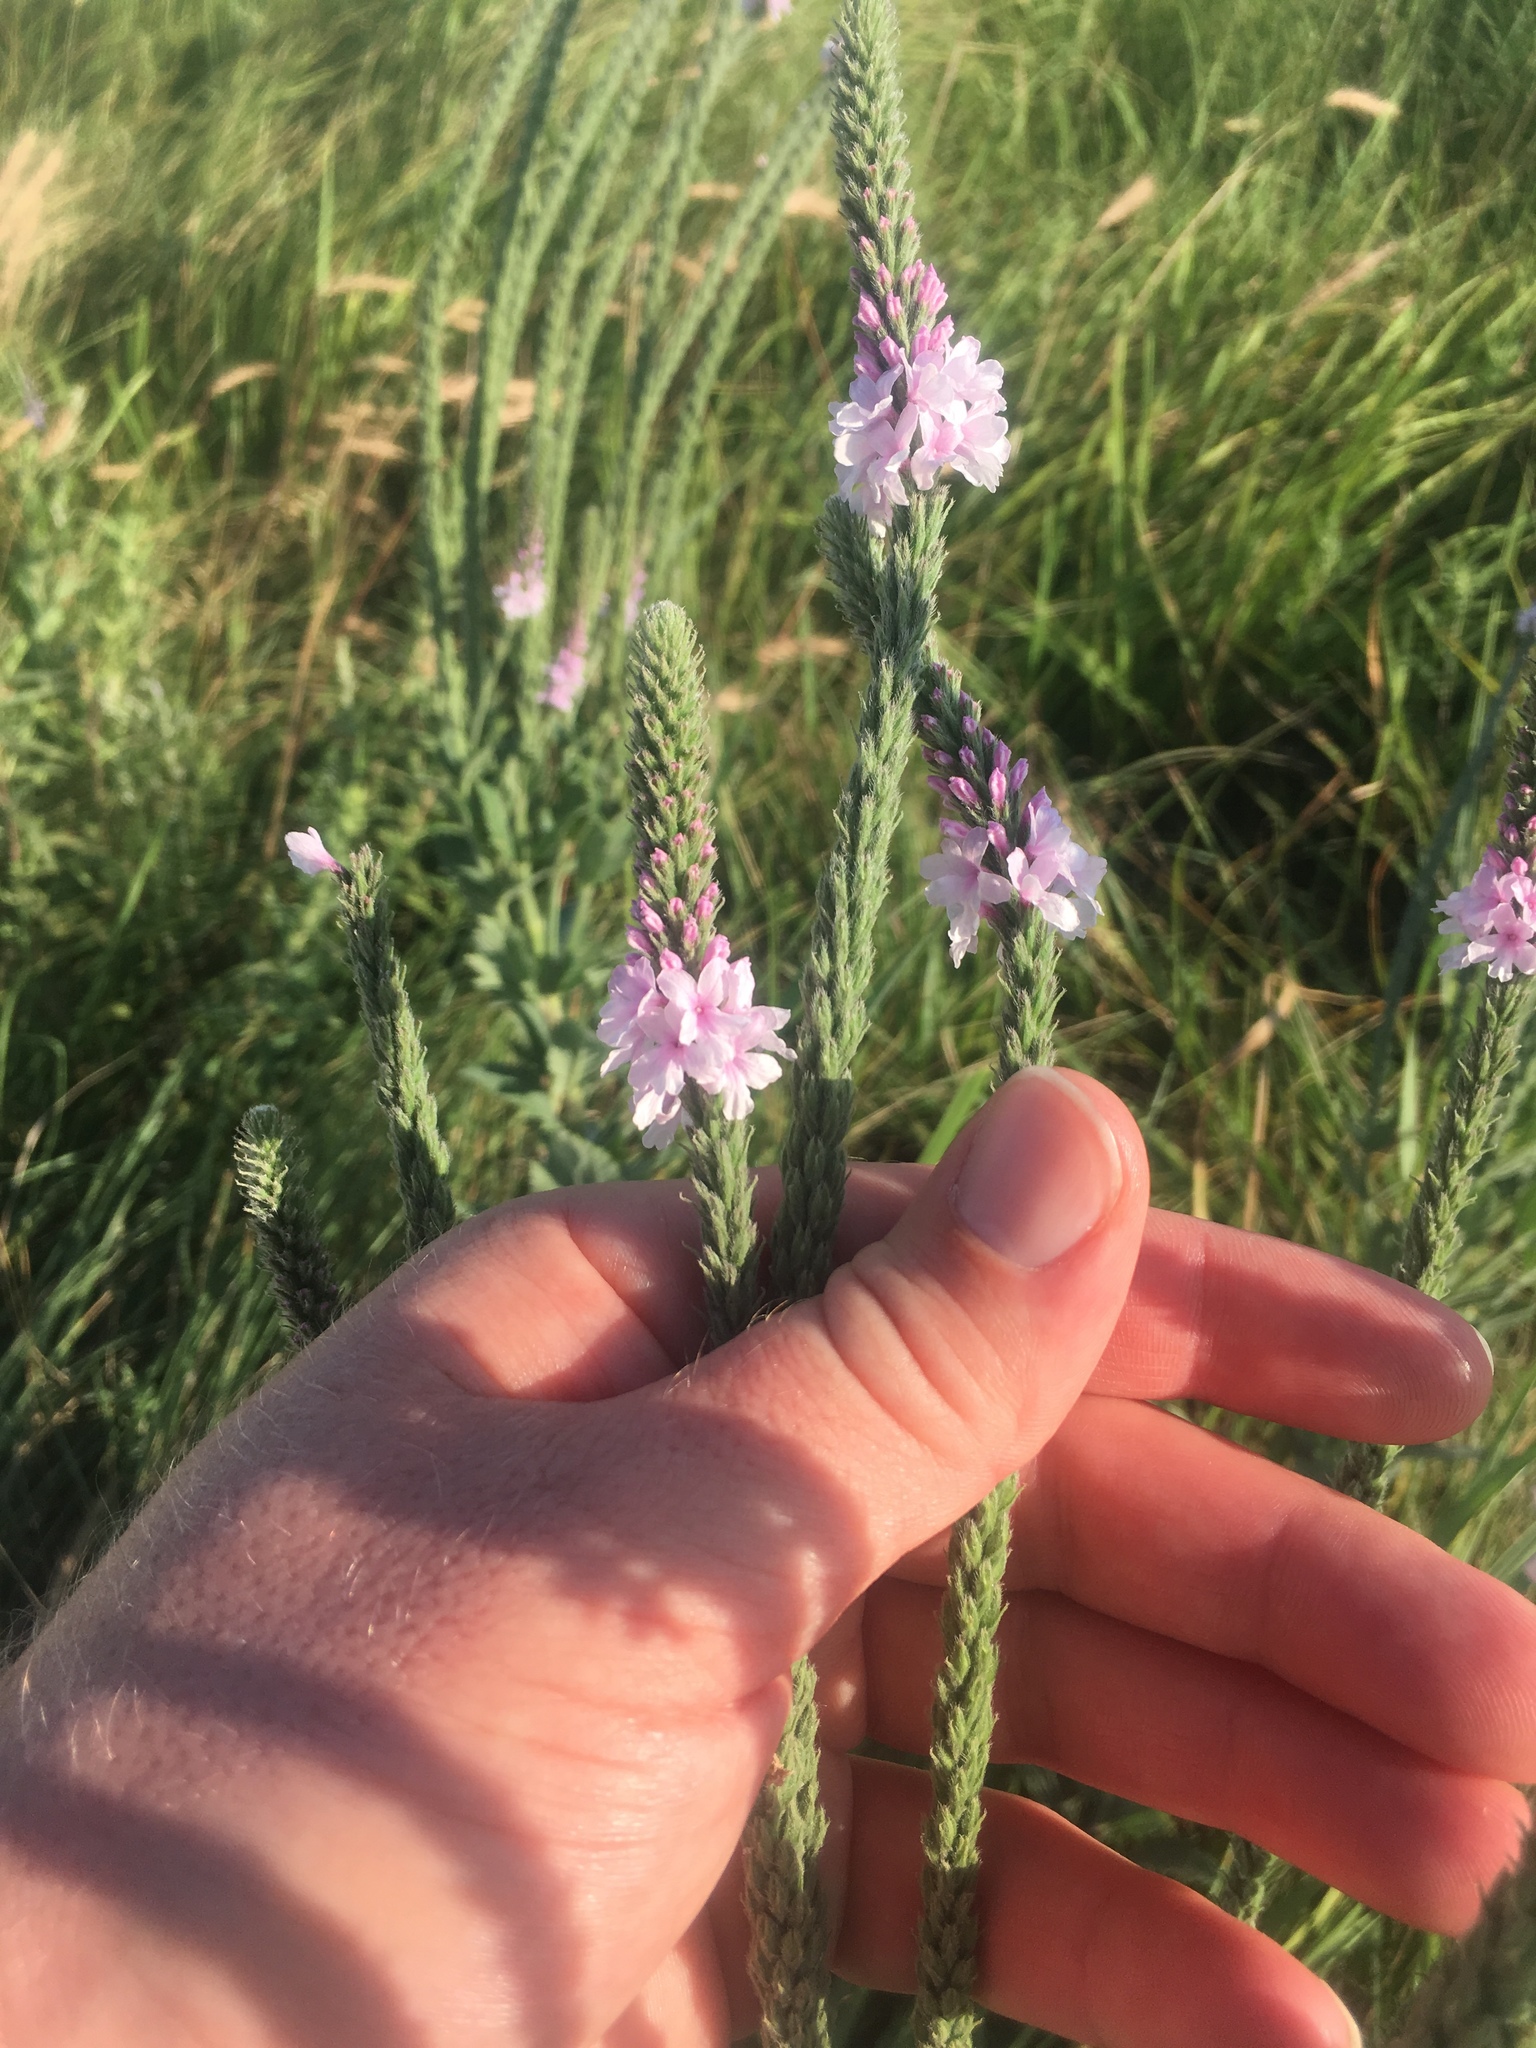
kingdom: Plantae
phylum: Tracheophyta
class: Magnoliopsida
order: Lamiales
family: Verbenaceae
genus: Verbena
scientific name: Verbena stricta
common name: Hoary vervain
